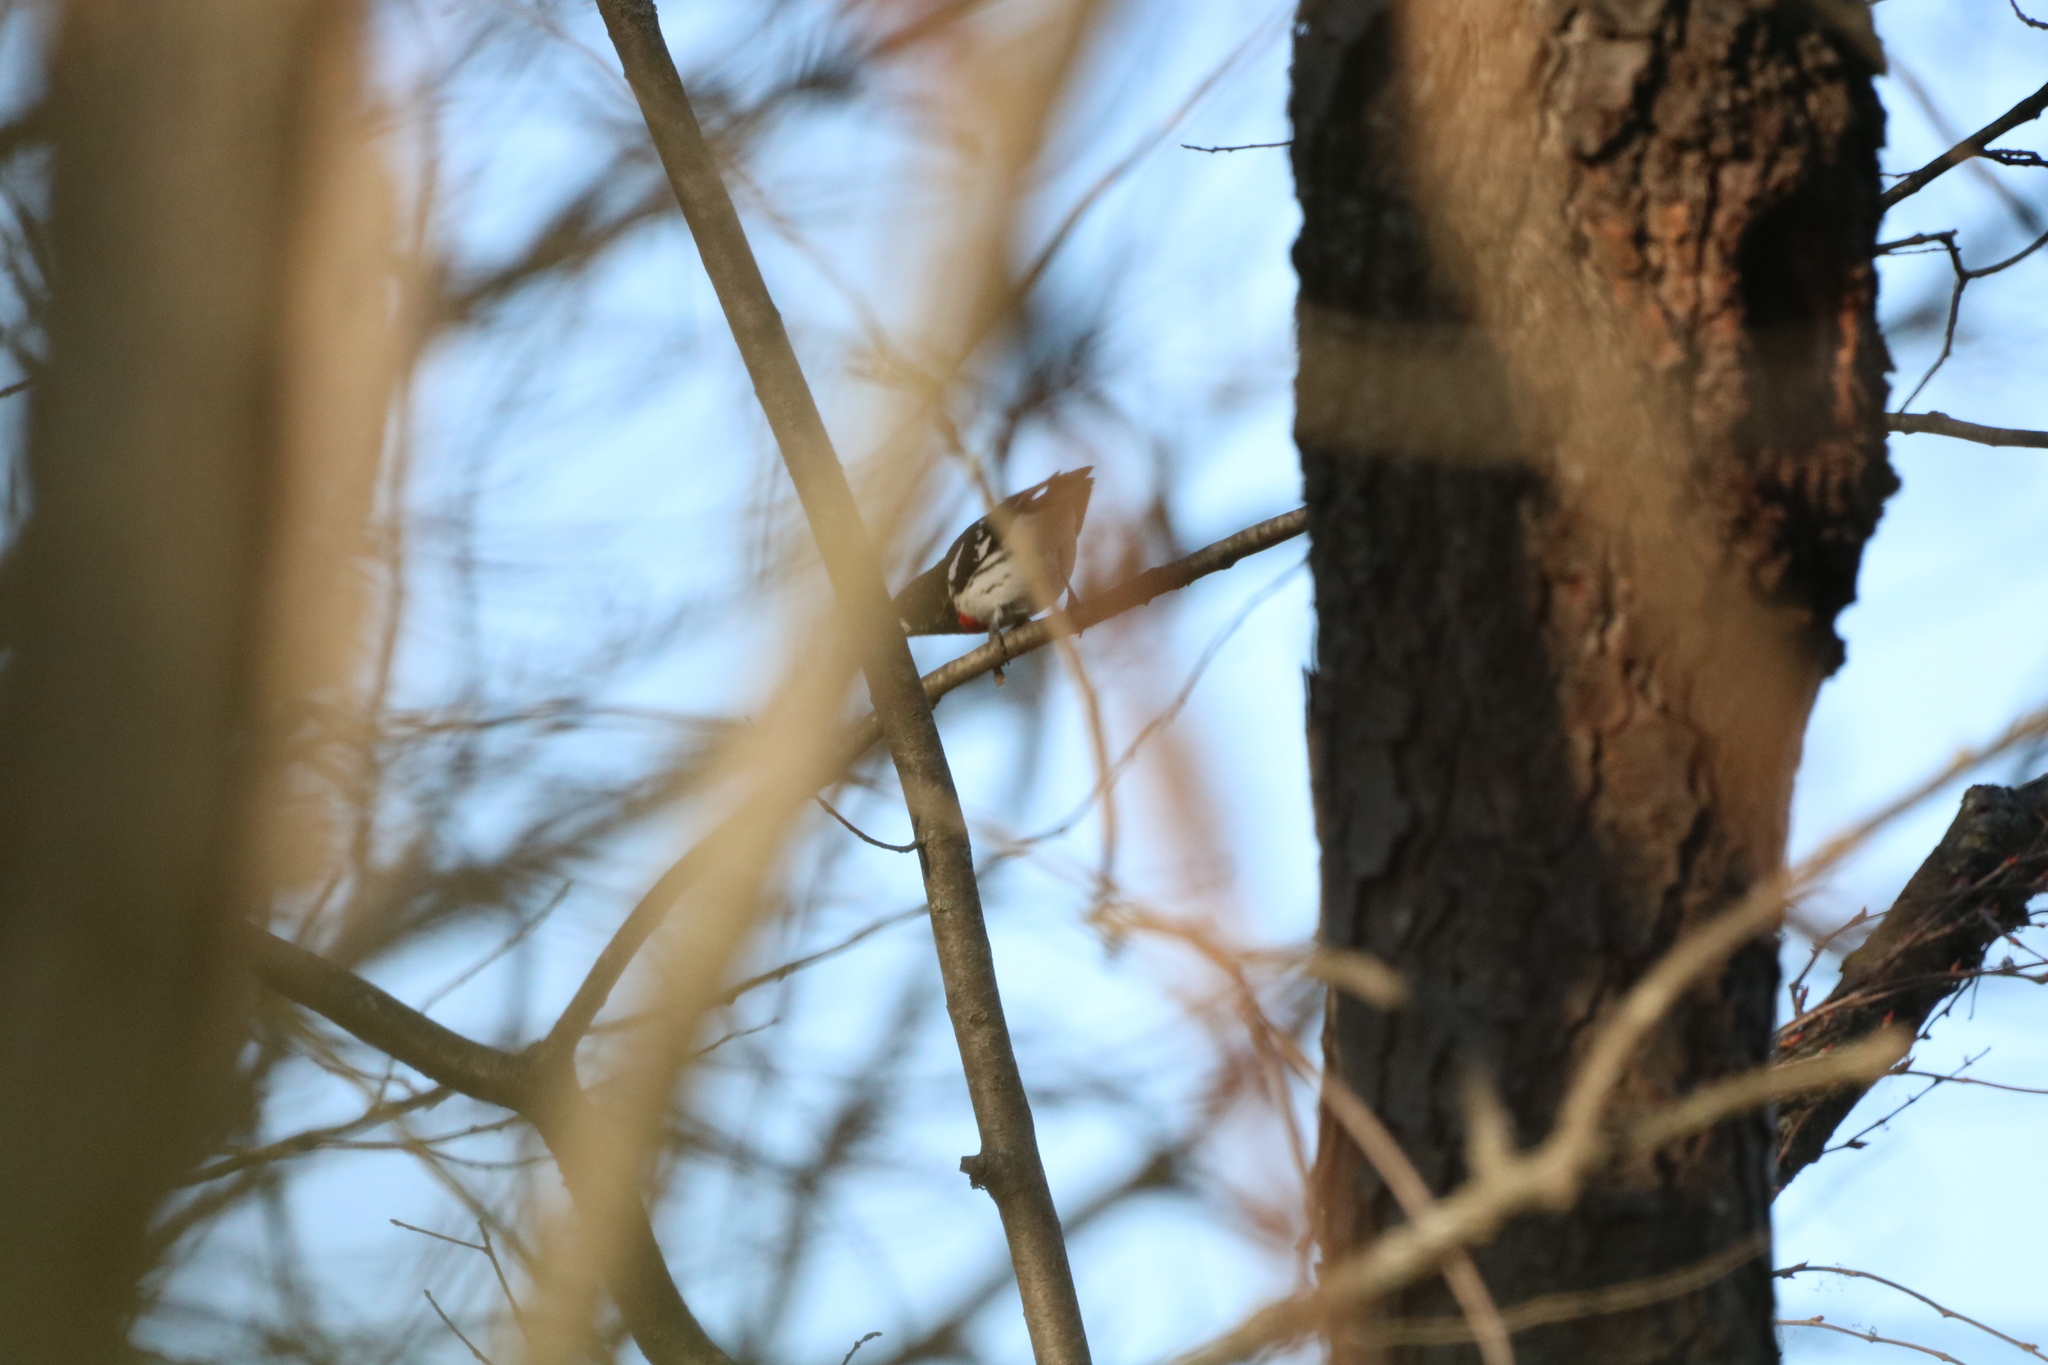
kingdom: Animalia
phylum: Chordata
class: Aves
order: Passeriformes
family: Cardinalidae
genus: Pheucticus
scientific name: Pheucticus ludovicianus
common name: Rose-breasted grosbeak
